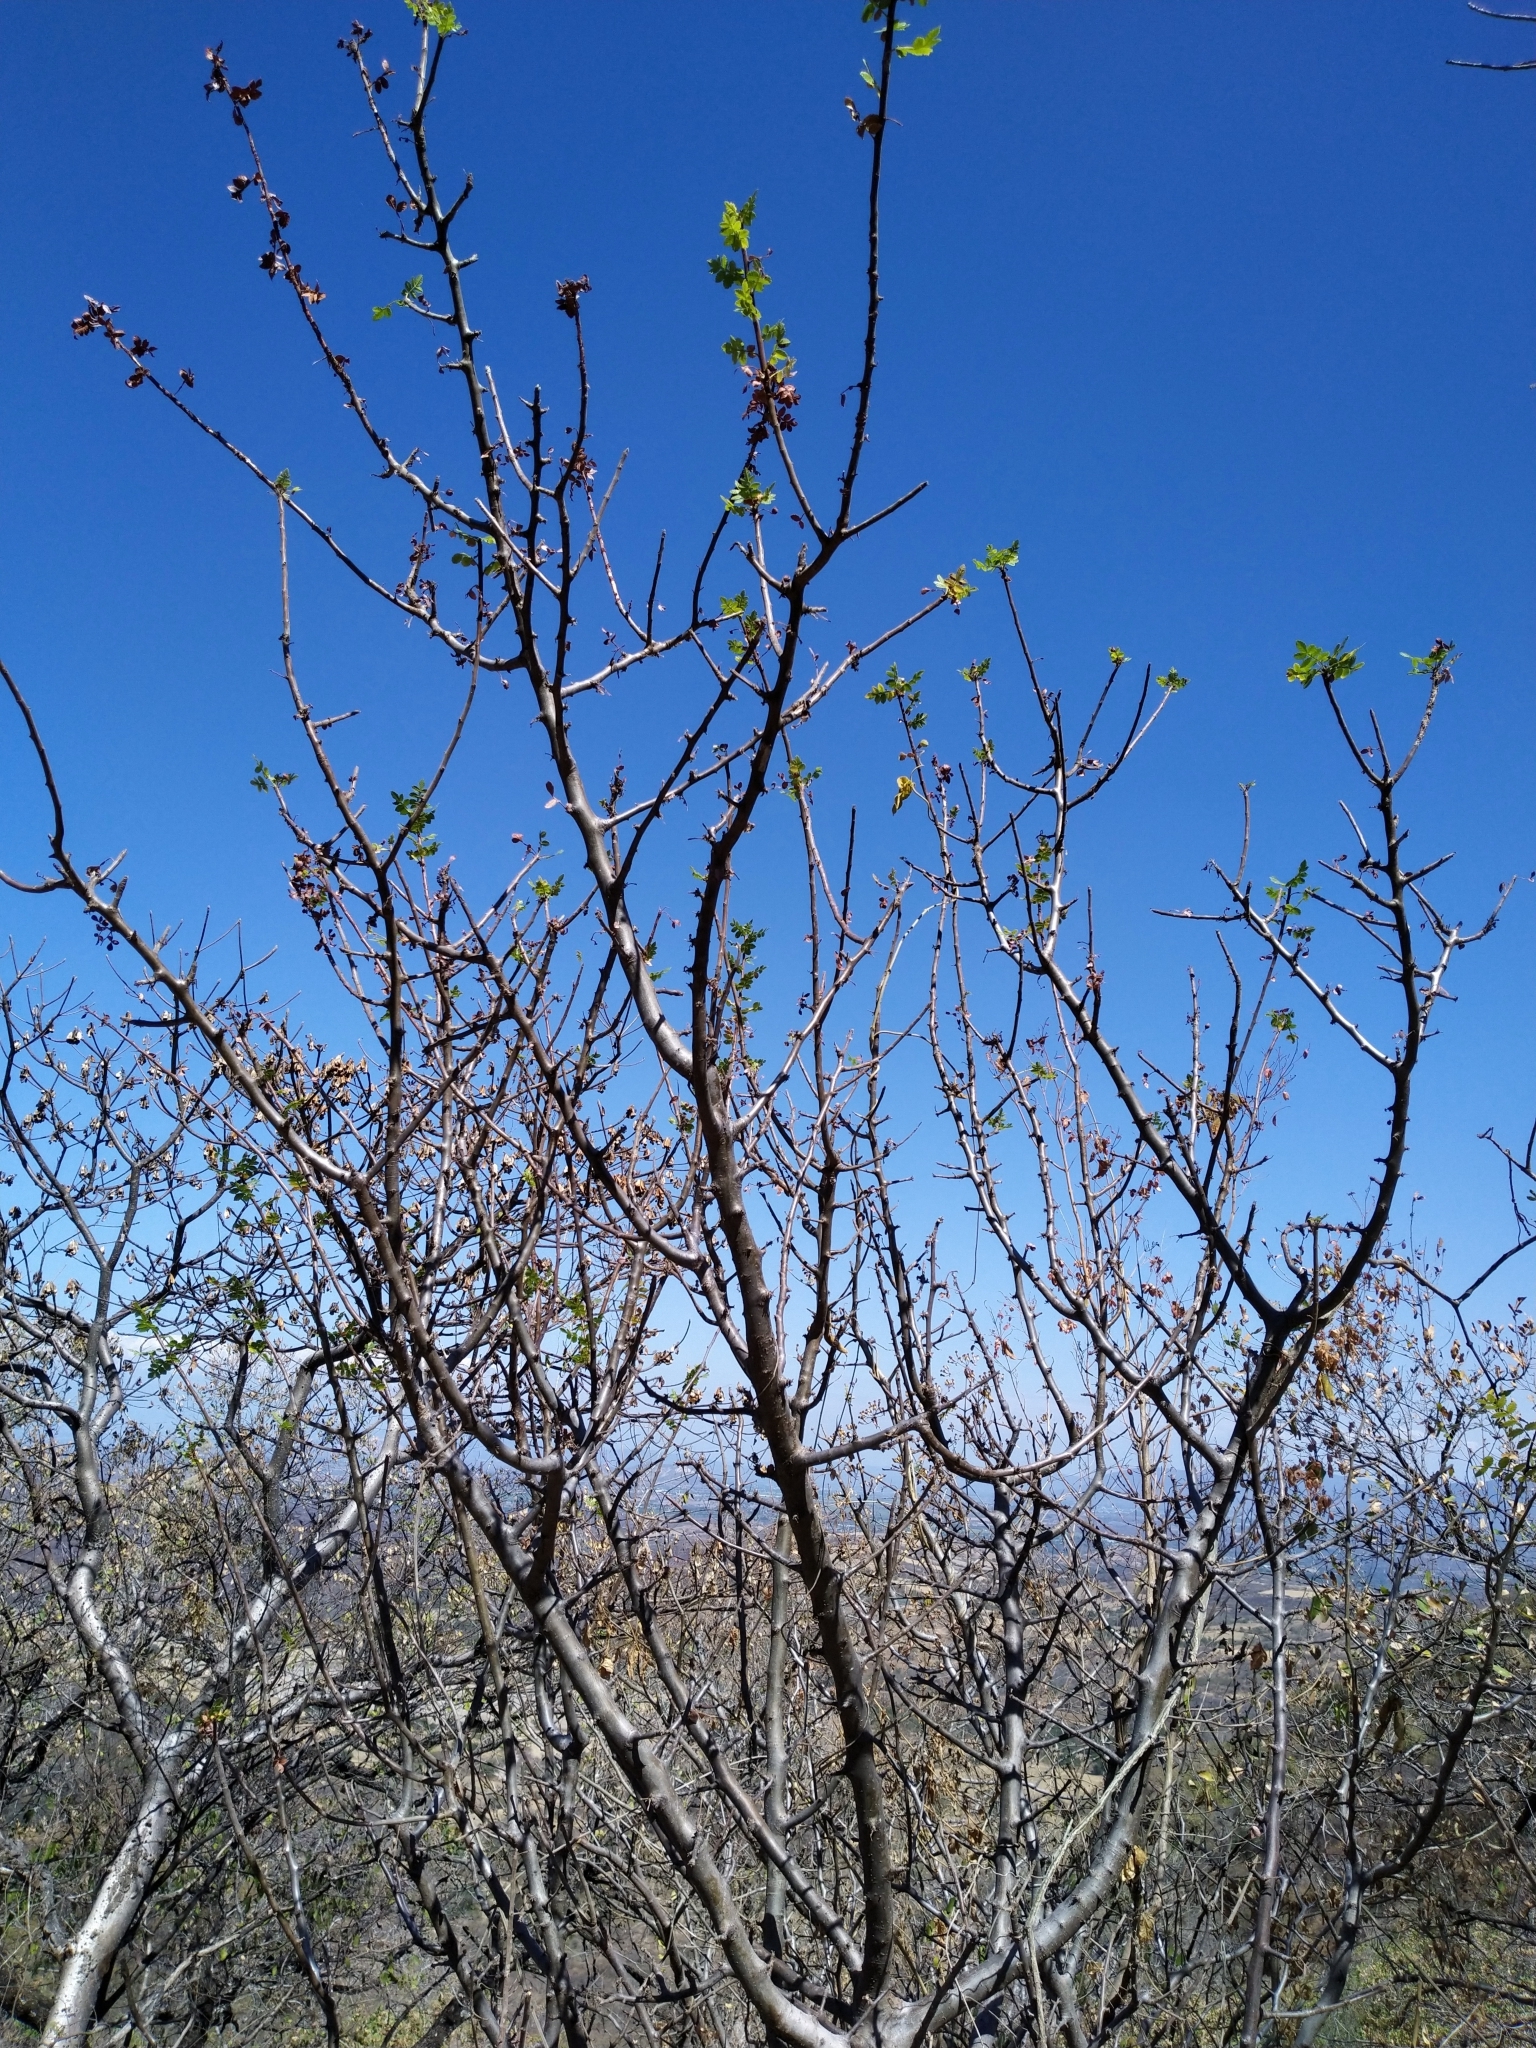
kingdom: Plantae
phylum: Tracheophyta
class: Magnoliopsida
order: Sapindales
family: Burseraceae
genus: Bursera
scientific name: Bursera linanoe
